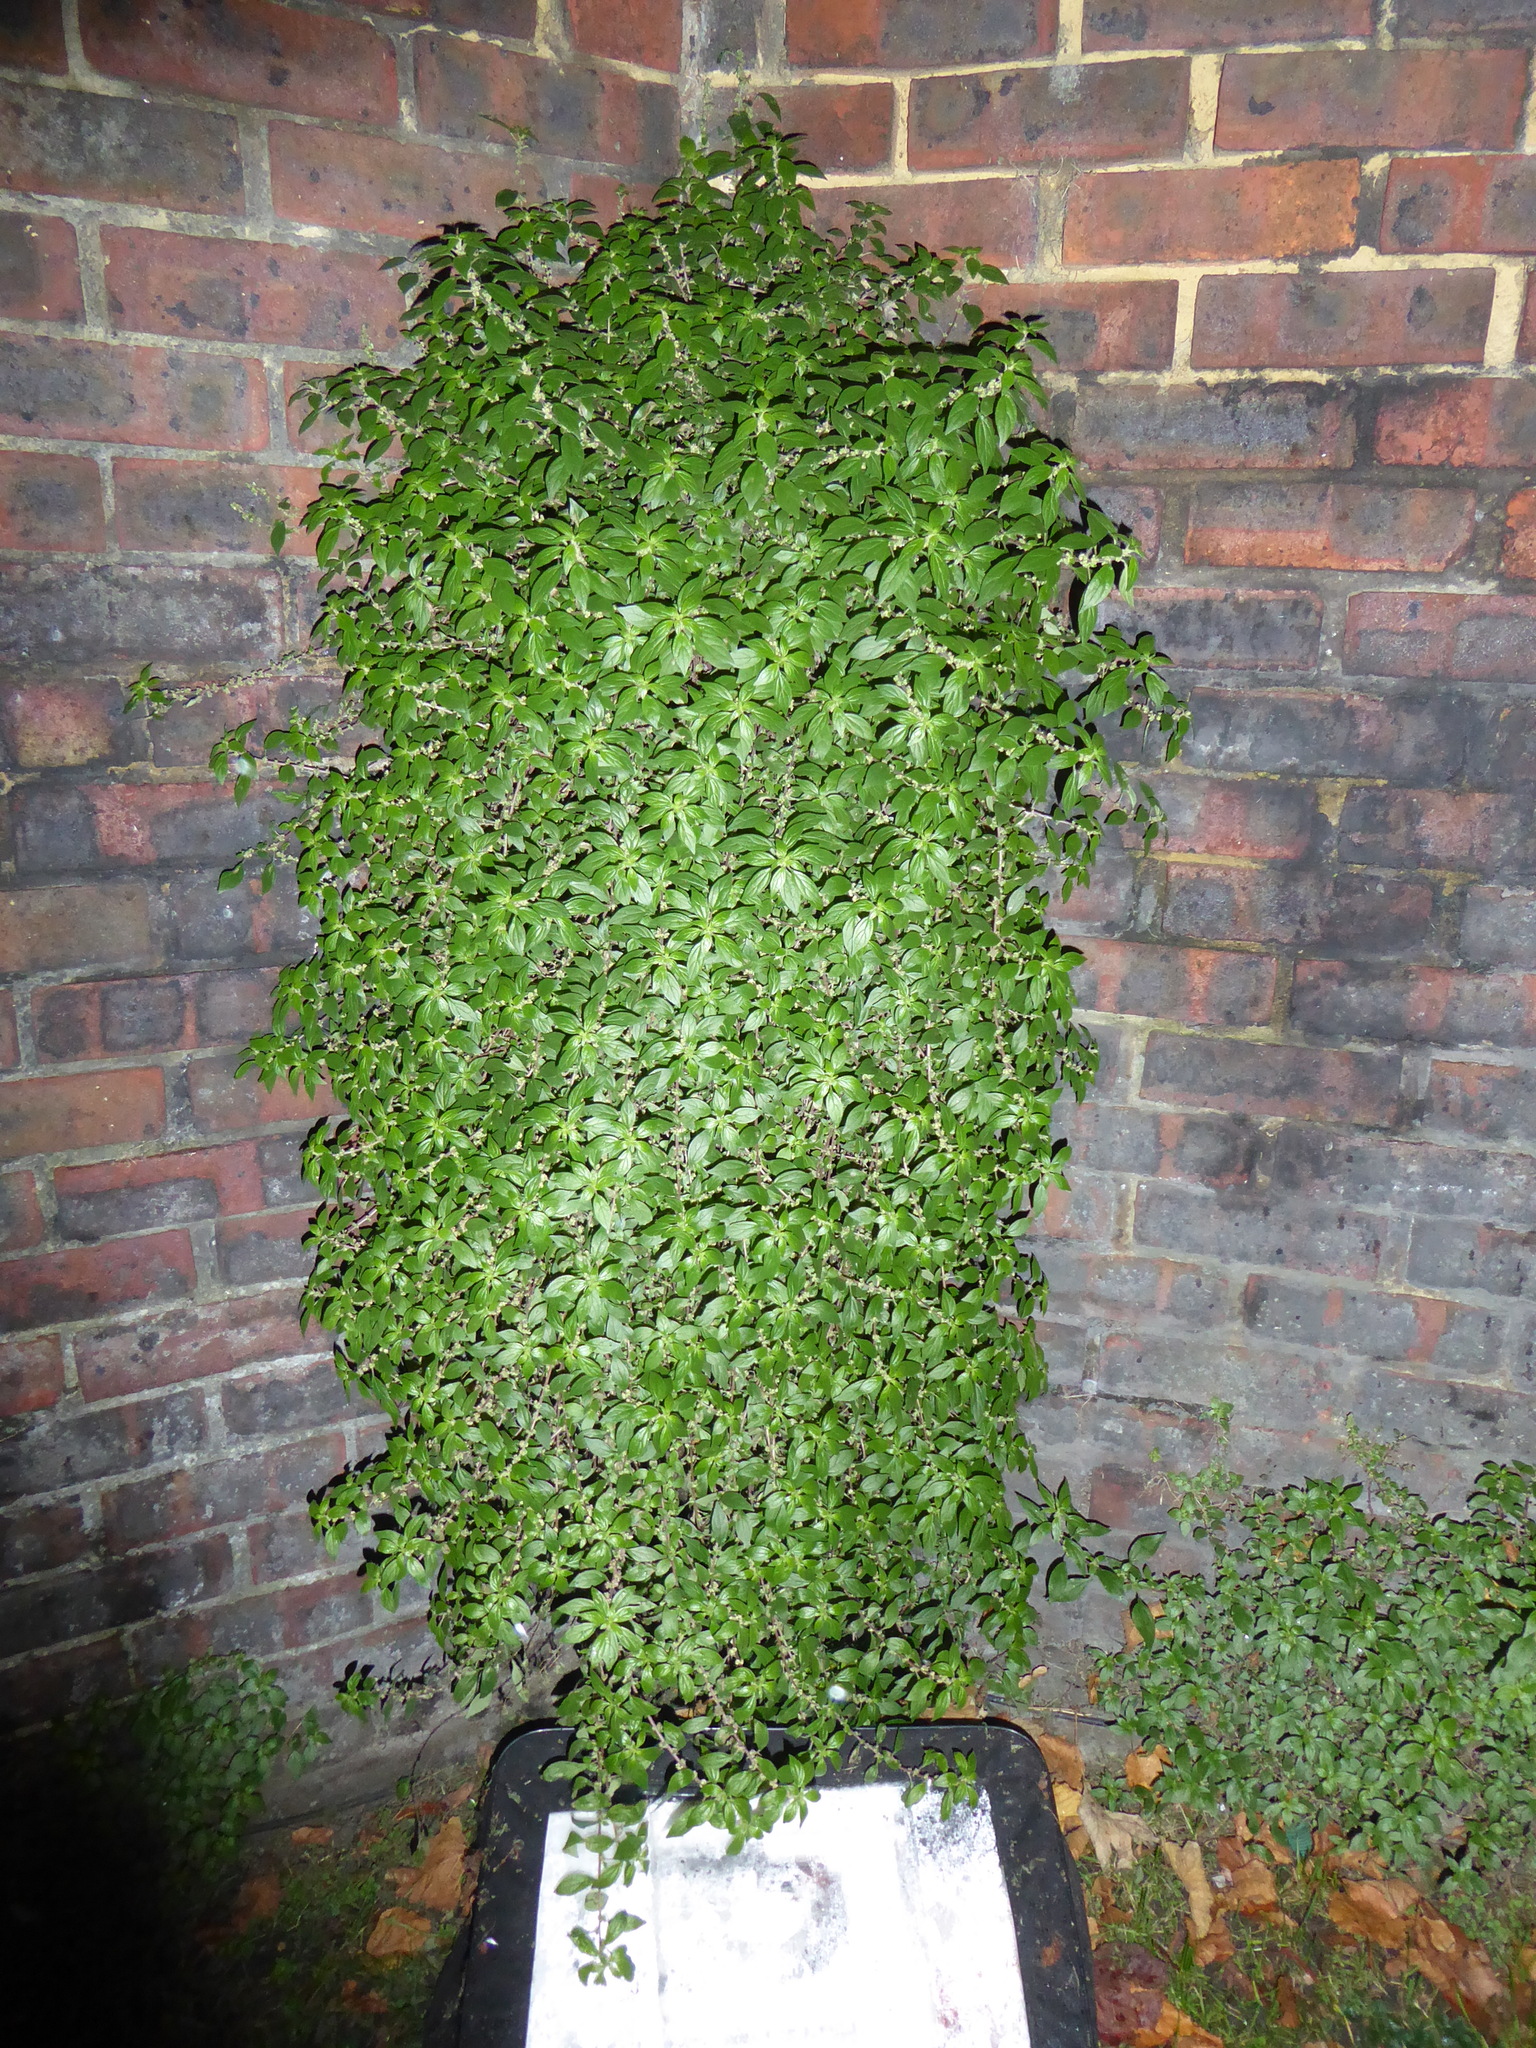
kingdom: Plantae
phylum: Tracheophyta
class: Magnoliopsida
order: Rosales
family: Urticaceae
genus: Parietaria
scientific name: Parietaria judaica
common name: Pellitory-of-the-wall
